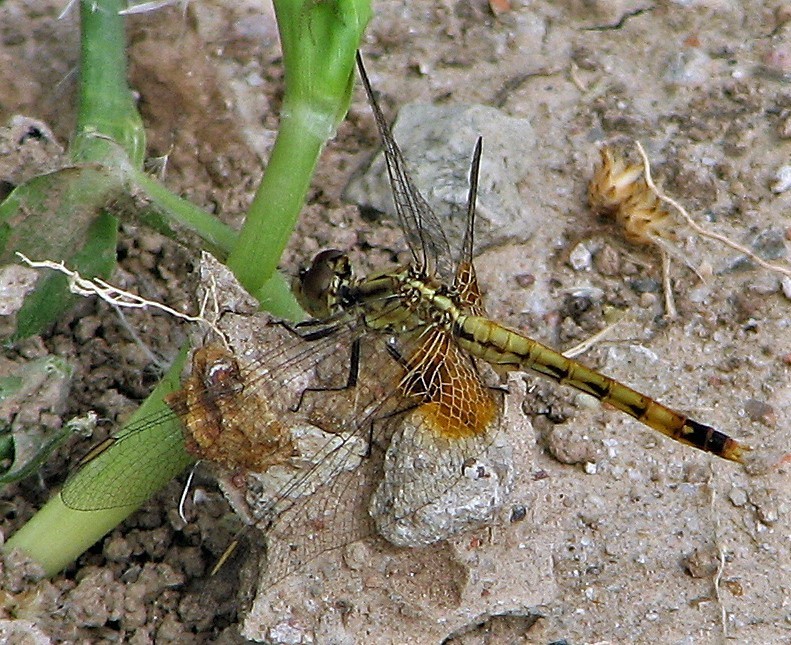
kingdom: Animalia
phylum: Arthropoda
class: Insecta
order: Odonata
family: Libellulidae
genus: Erythrodiplax
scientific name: Erythrodiplax corallina
